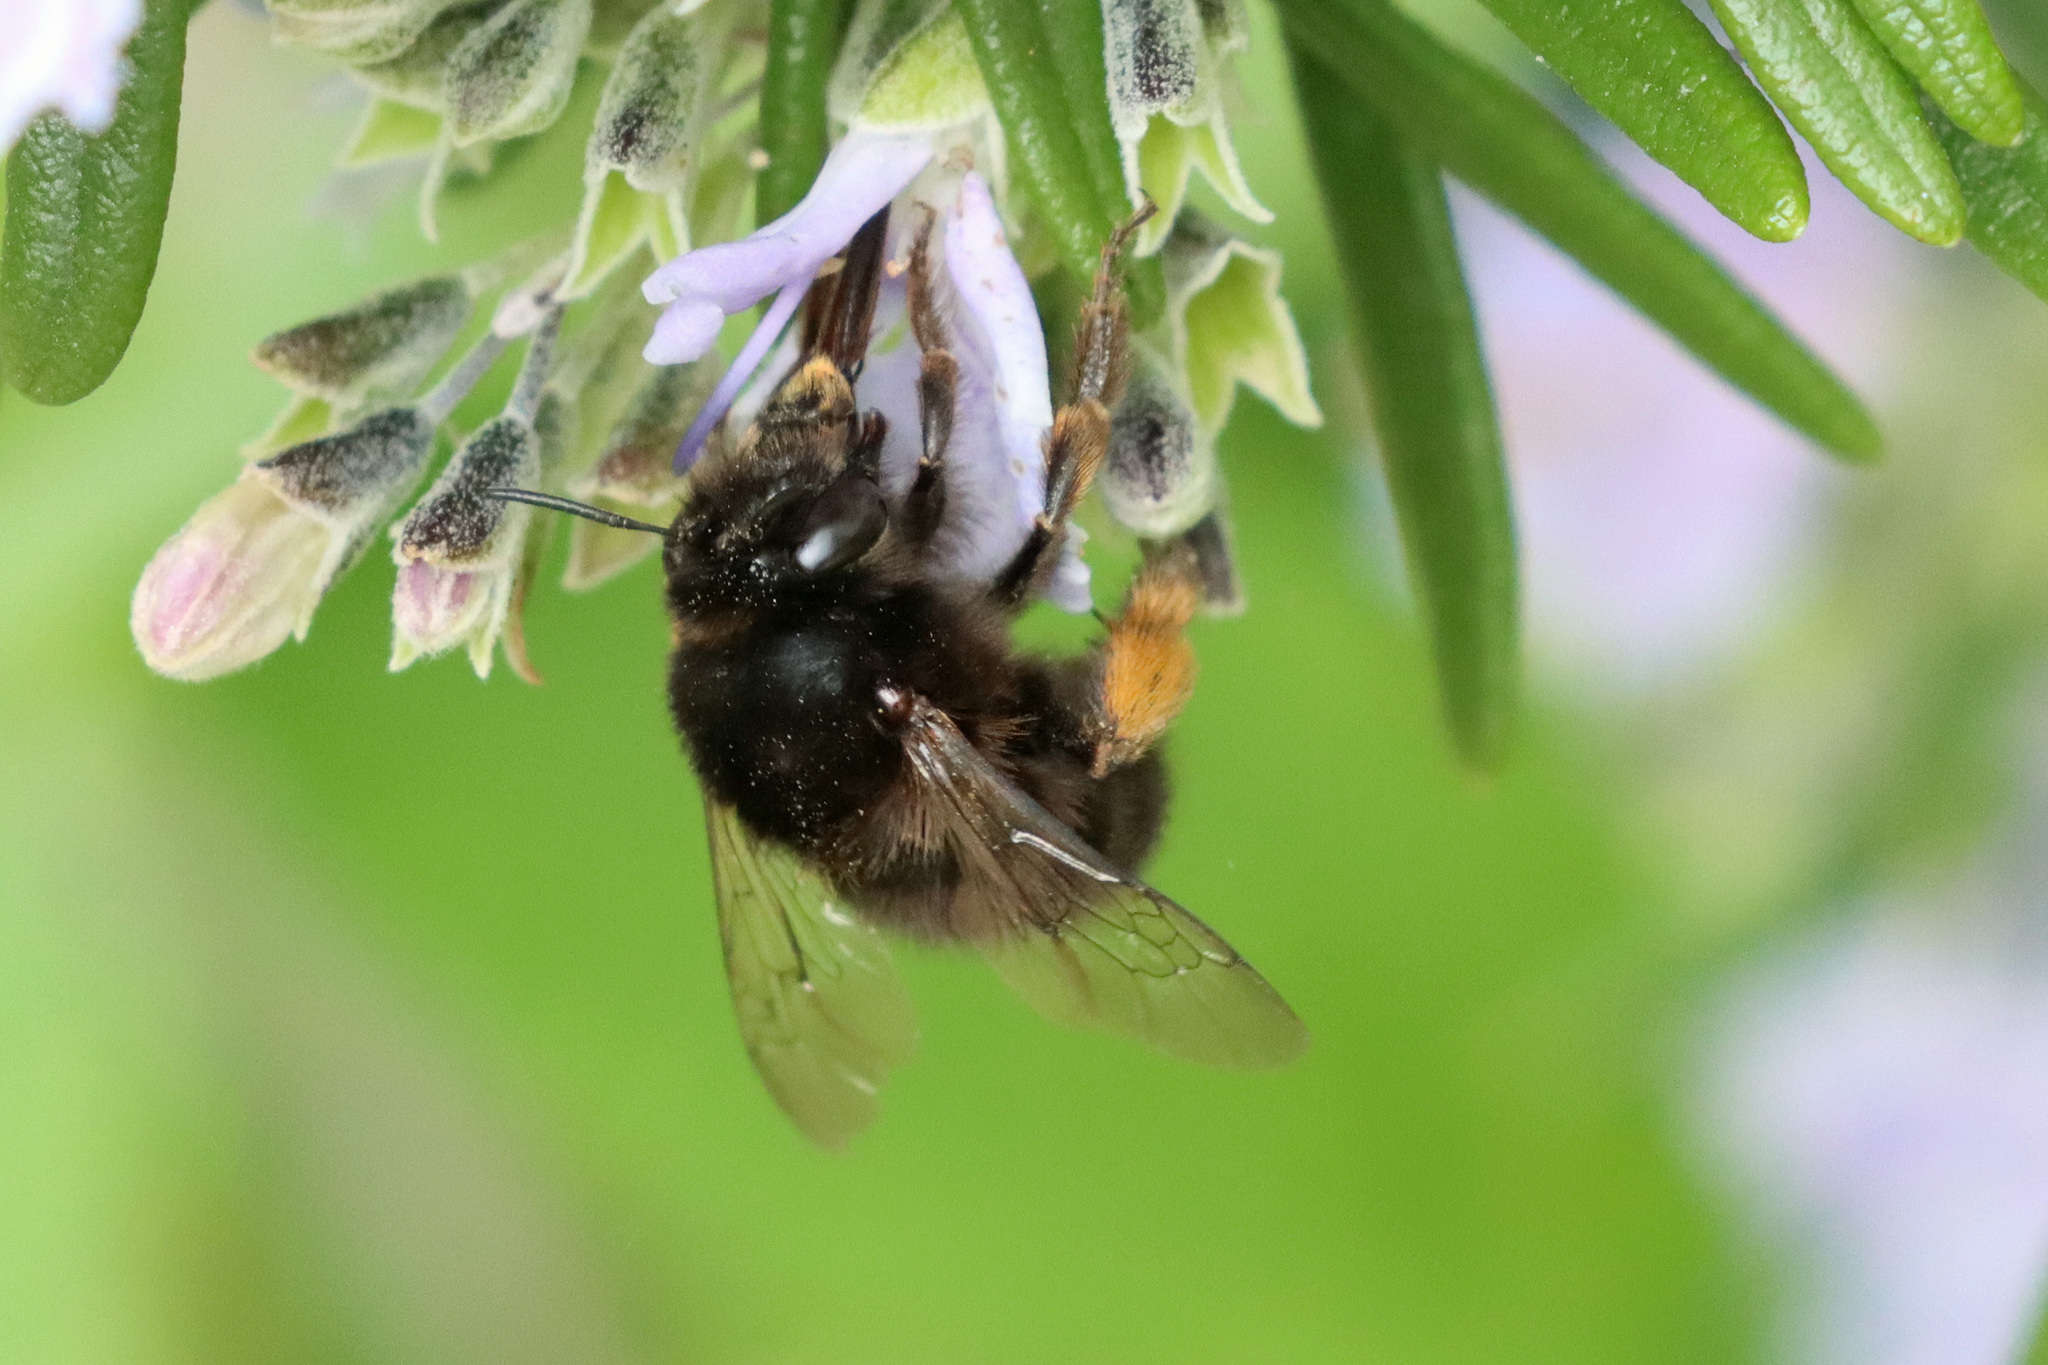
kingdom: Animalia
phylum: Arthropoda
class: Insecta
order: Hymenoptera
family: Apidae
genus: Anthophora
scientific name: Anthophora plumipes
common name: Hairy-footed flower bee
